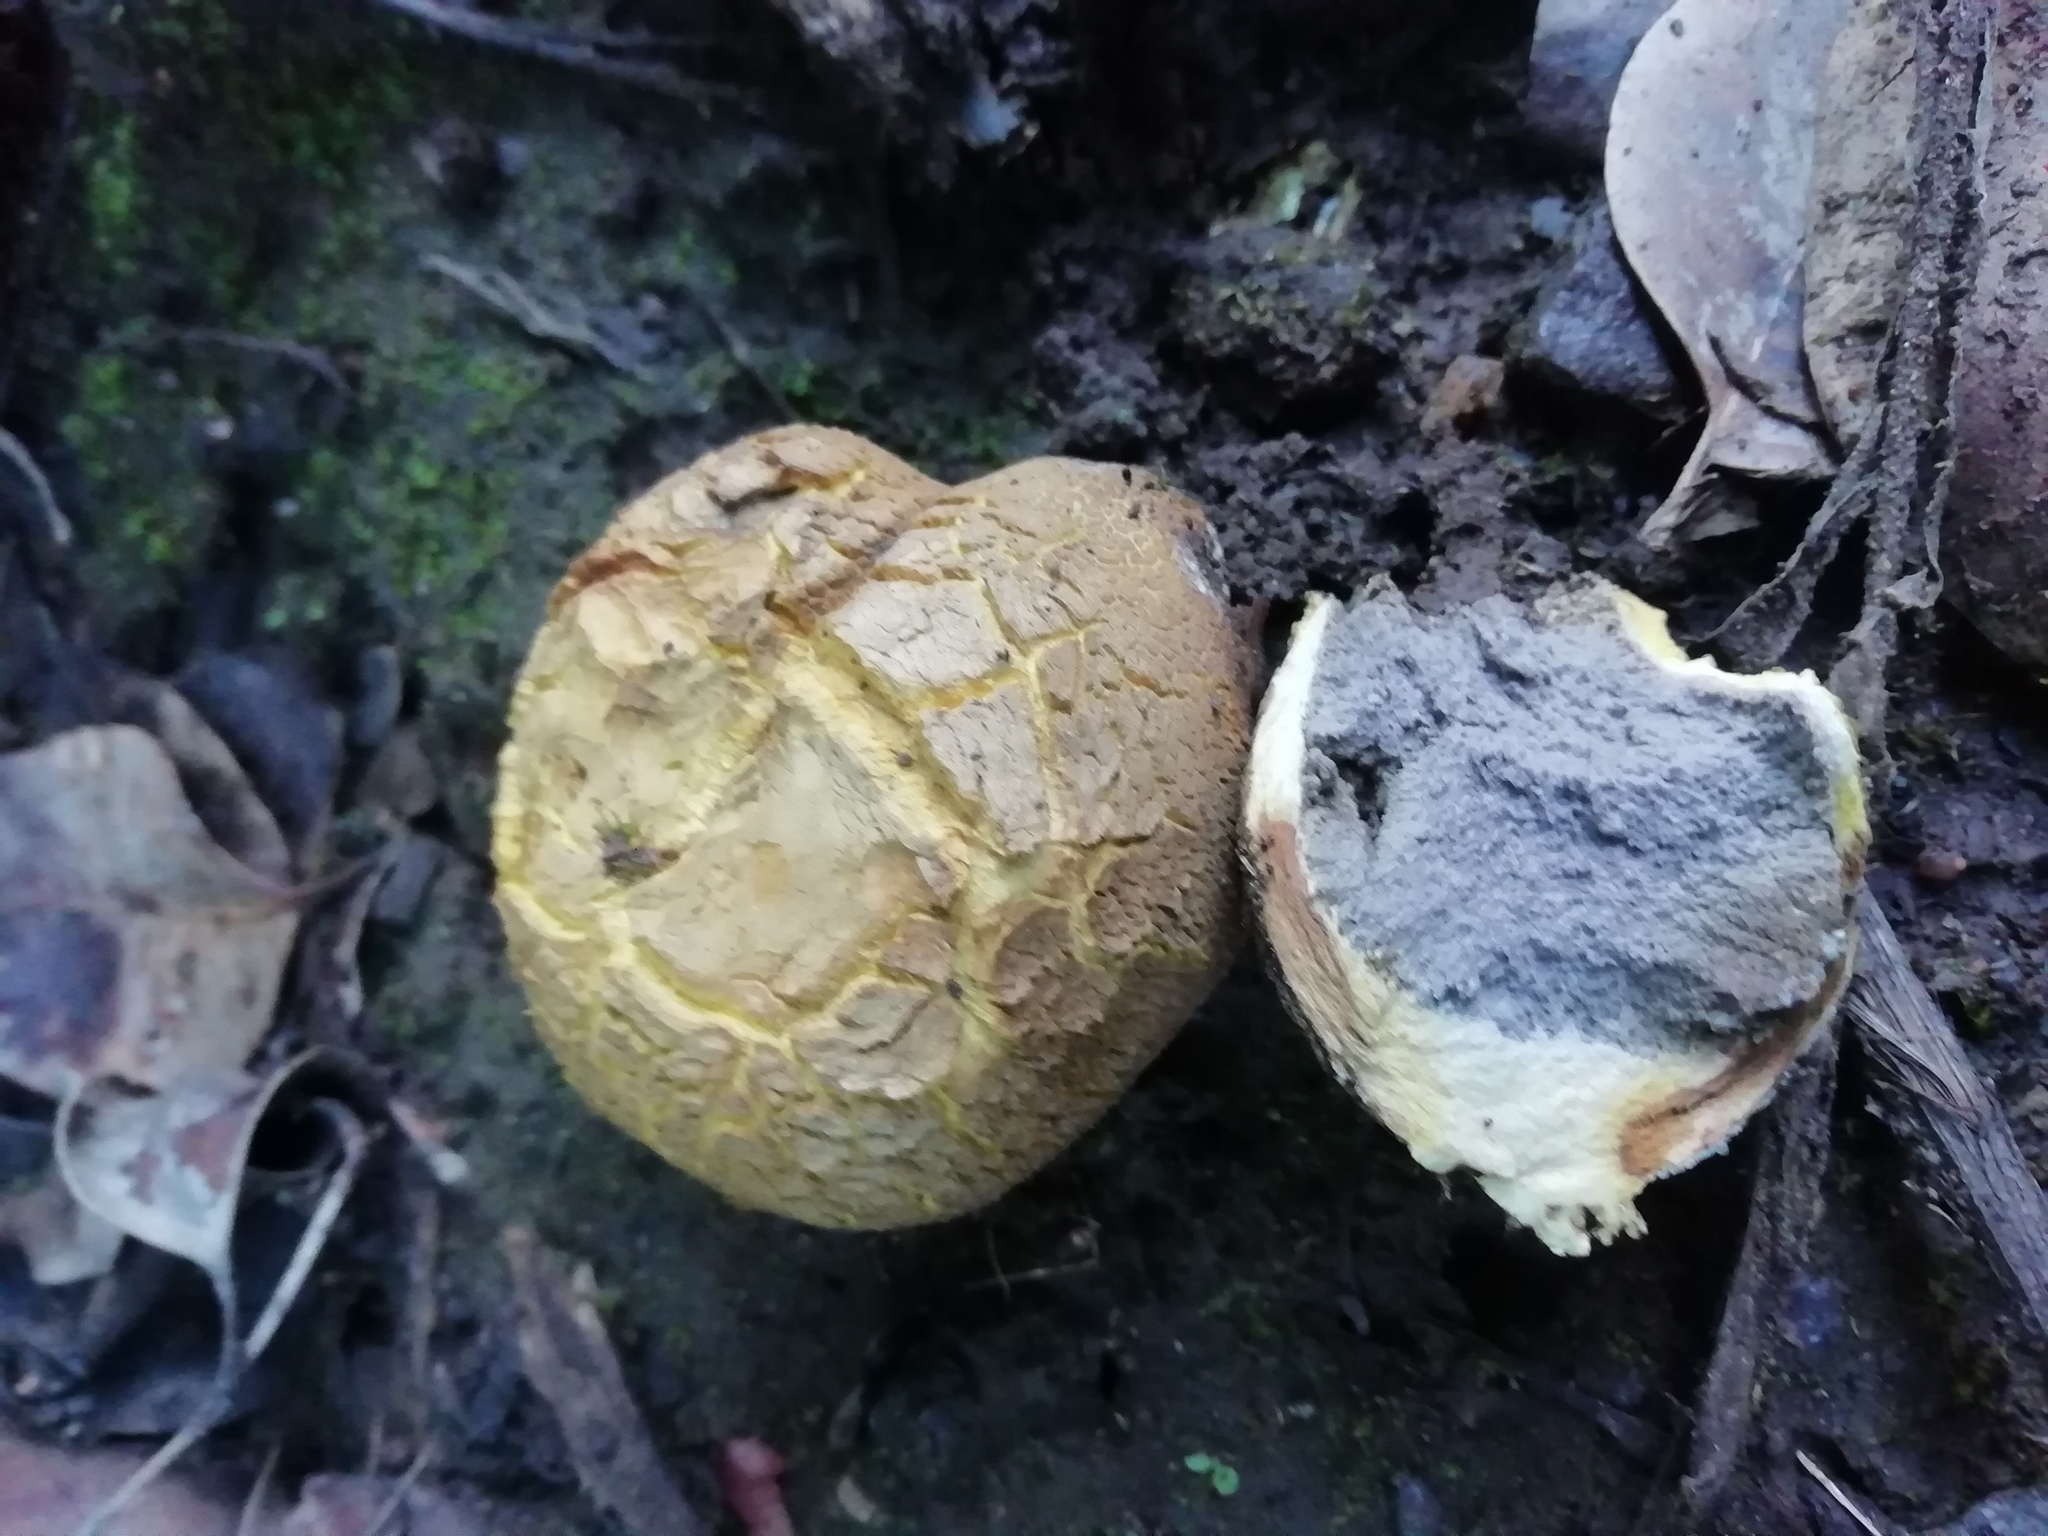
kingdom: Fungi
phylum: Basidiomycota
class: Agaricomycetes
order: Boletales
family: Sclerodermataceae
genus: Scleroderma
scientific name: Scleroderma citrinum
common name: Common earthball
